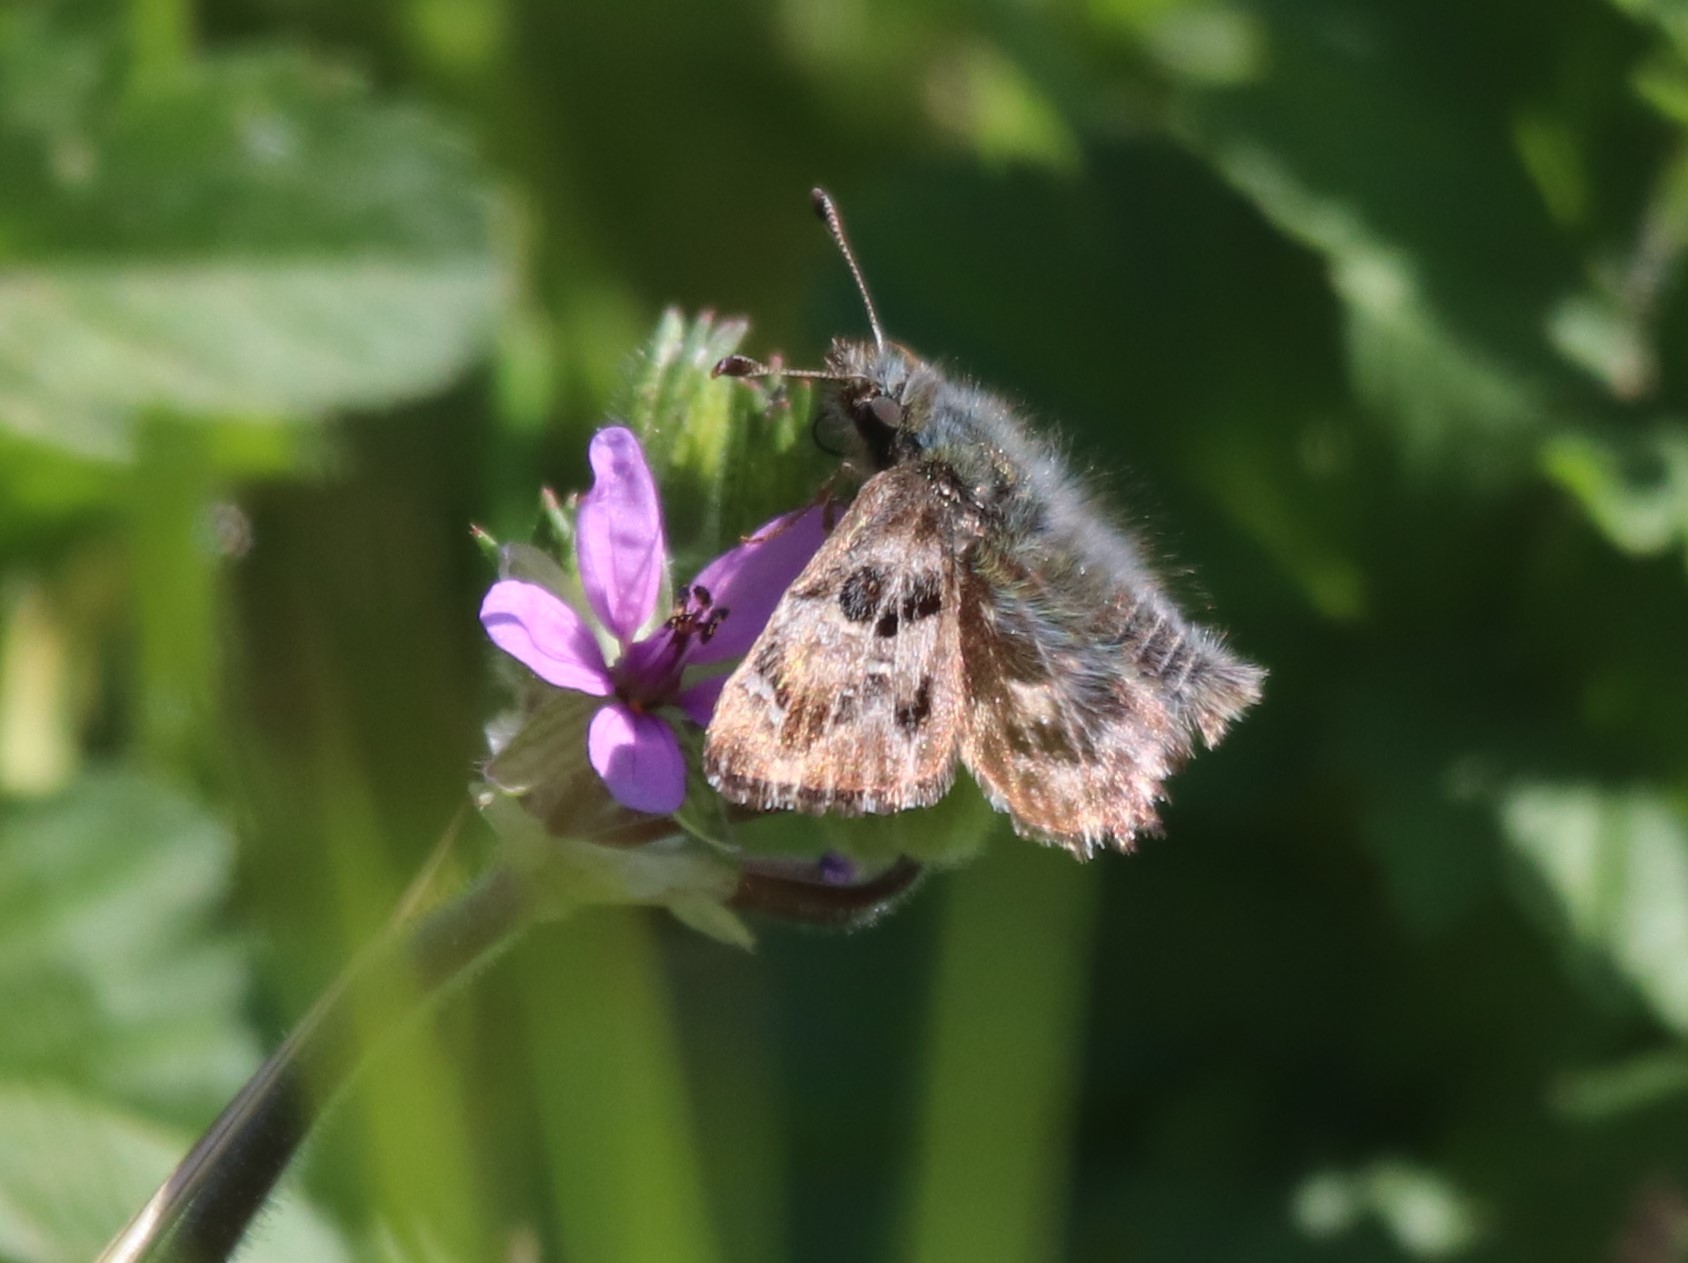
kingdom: Animalia
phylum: Arthropoda
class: Insecta
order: Lepidoptera
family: Hesperiidae
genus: Carcharodus
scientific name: Carcharodus alceae
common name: Mallow skipper
